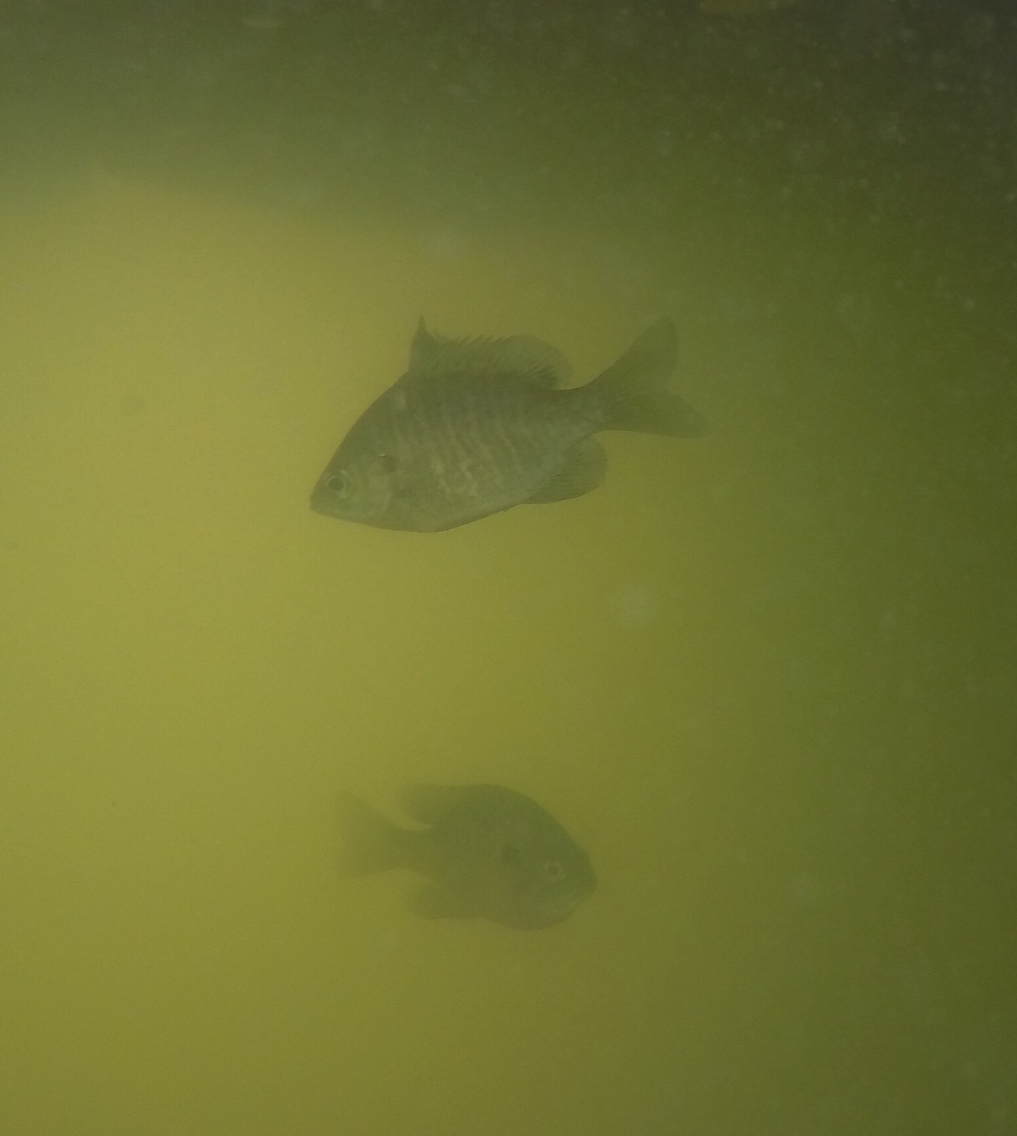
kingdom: Animalia
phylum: Chordata
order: Perciformes
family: Centrarchidae
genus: Lepomis
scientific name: Lepomis macrochirus
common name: Bluegill
